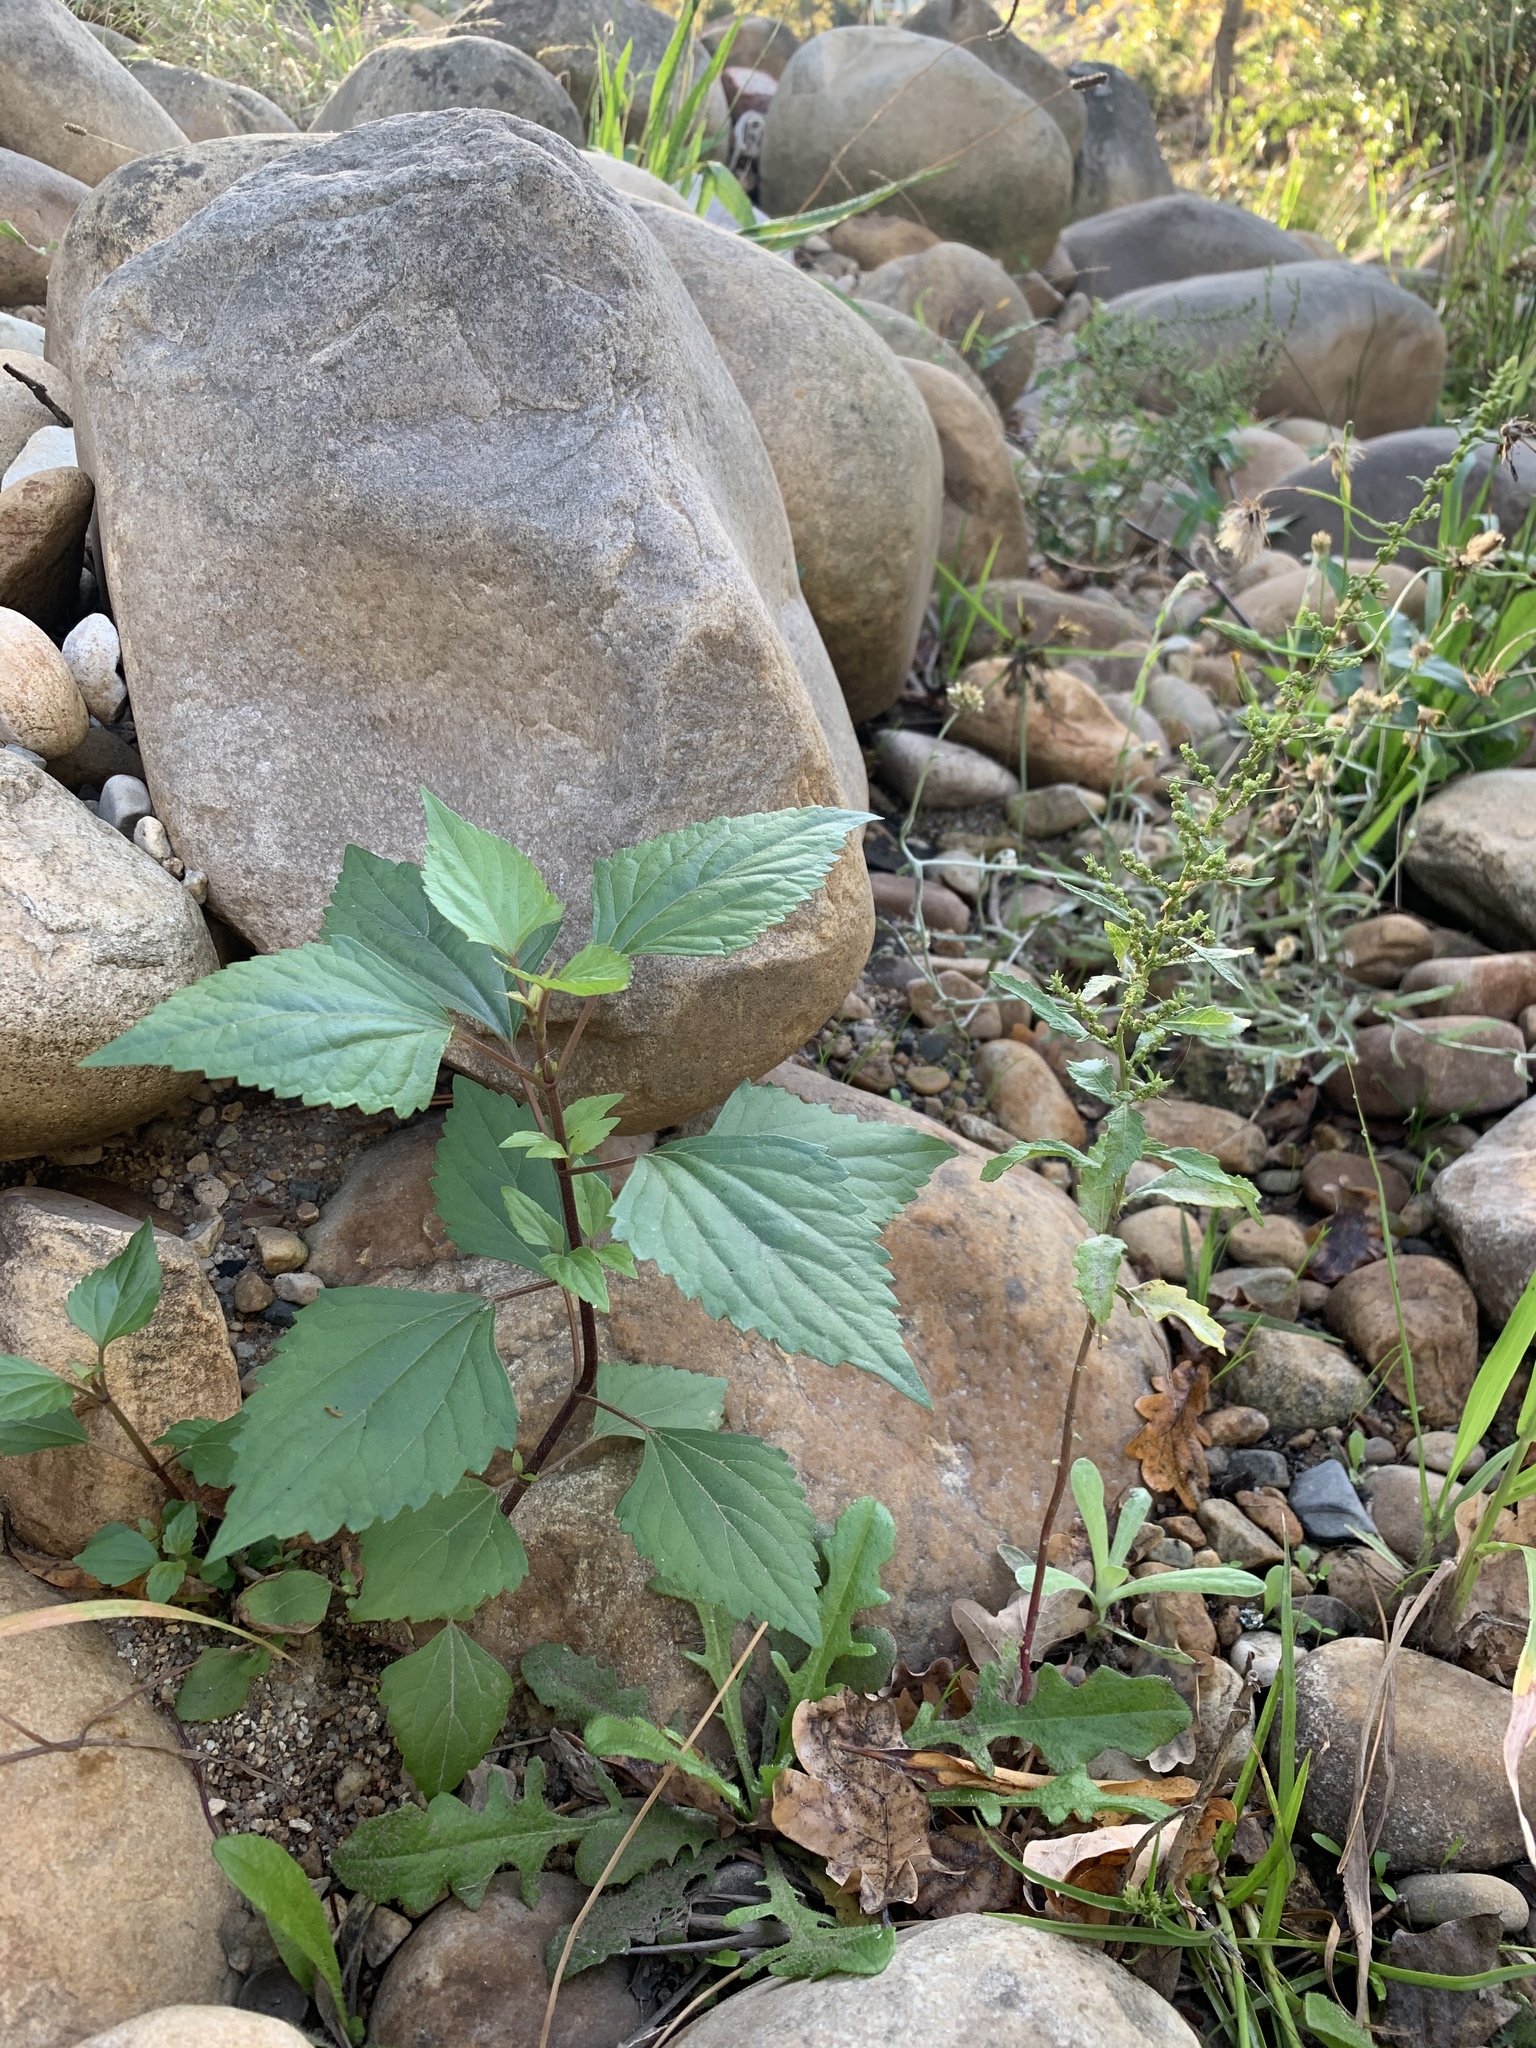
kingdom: Plantae
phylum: Tracheophyta
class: Magnoliopsida
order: Asterales
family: Asteraceae
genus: Ageratina
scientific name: Ageratina adenophora
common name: Sticky snakeroot
